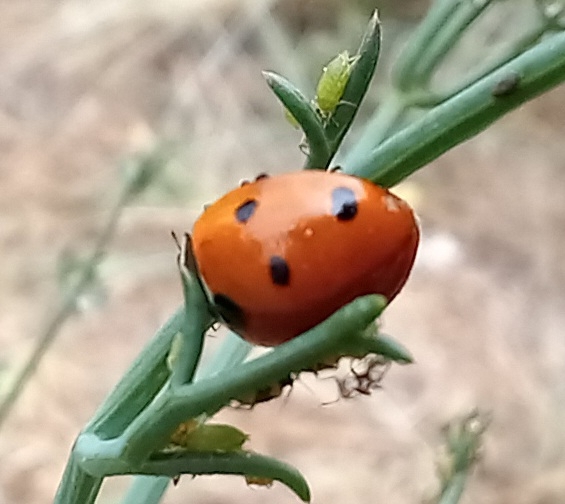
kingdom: Animalia
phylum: Arthropoda
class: Insecta
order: Coleoptera
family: Coccinellidae
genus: Coccinella
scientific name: Coccinella septempunctata
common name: Sevenspotted lady beetle
